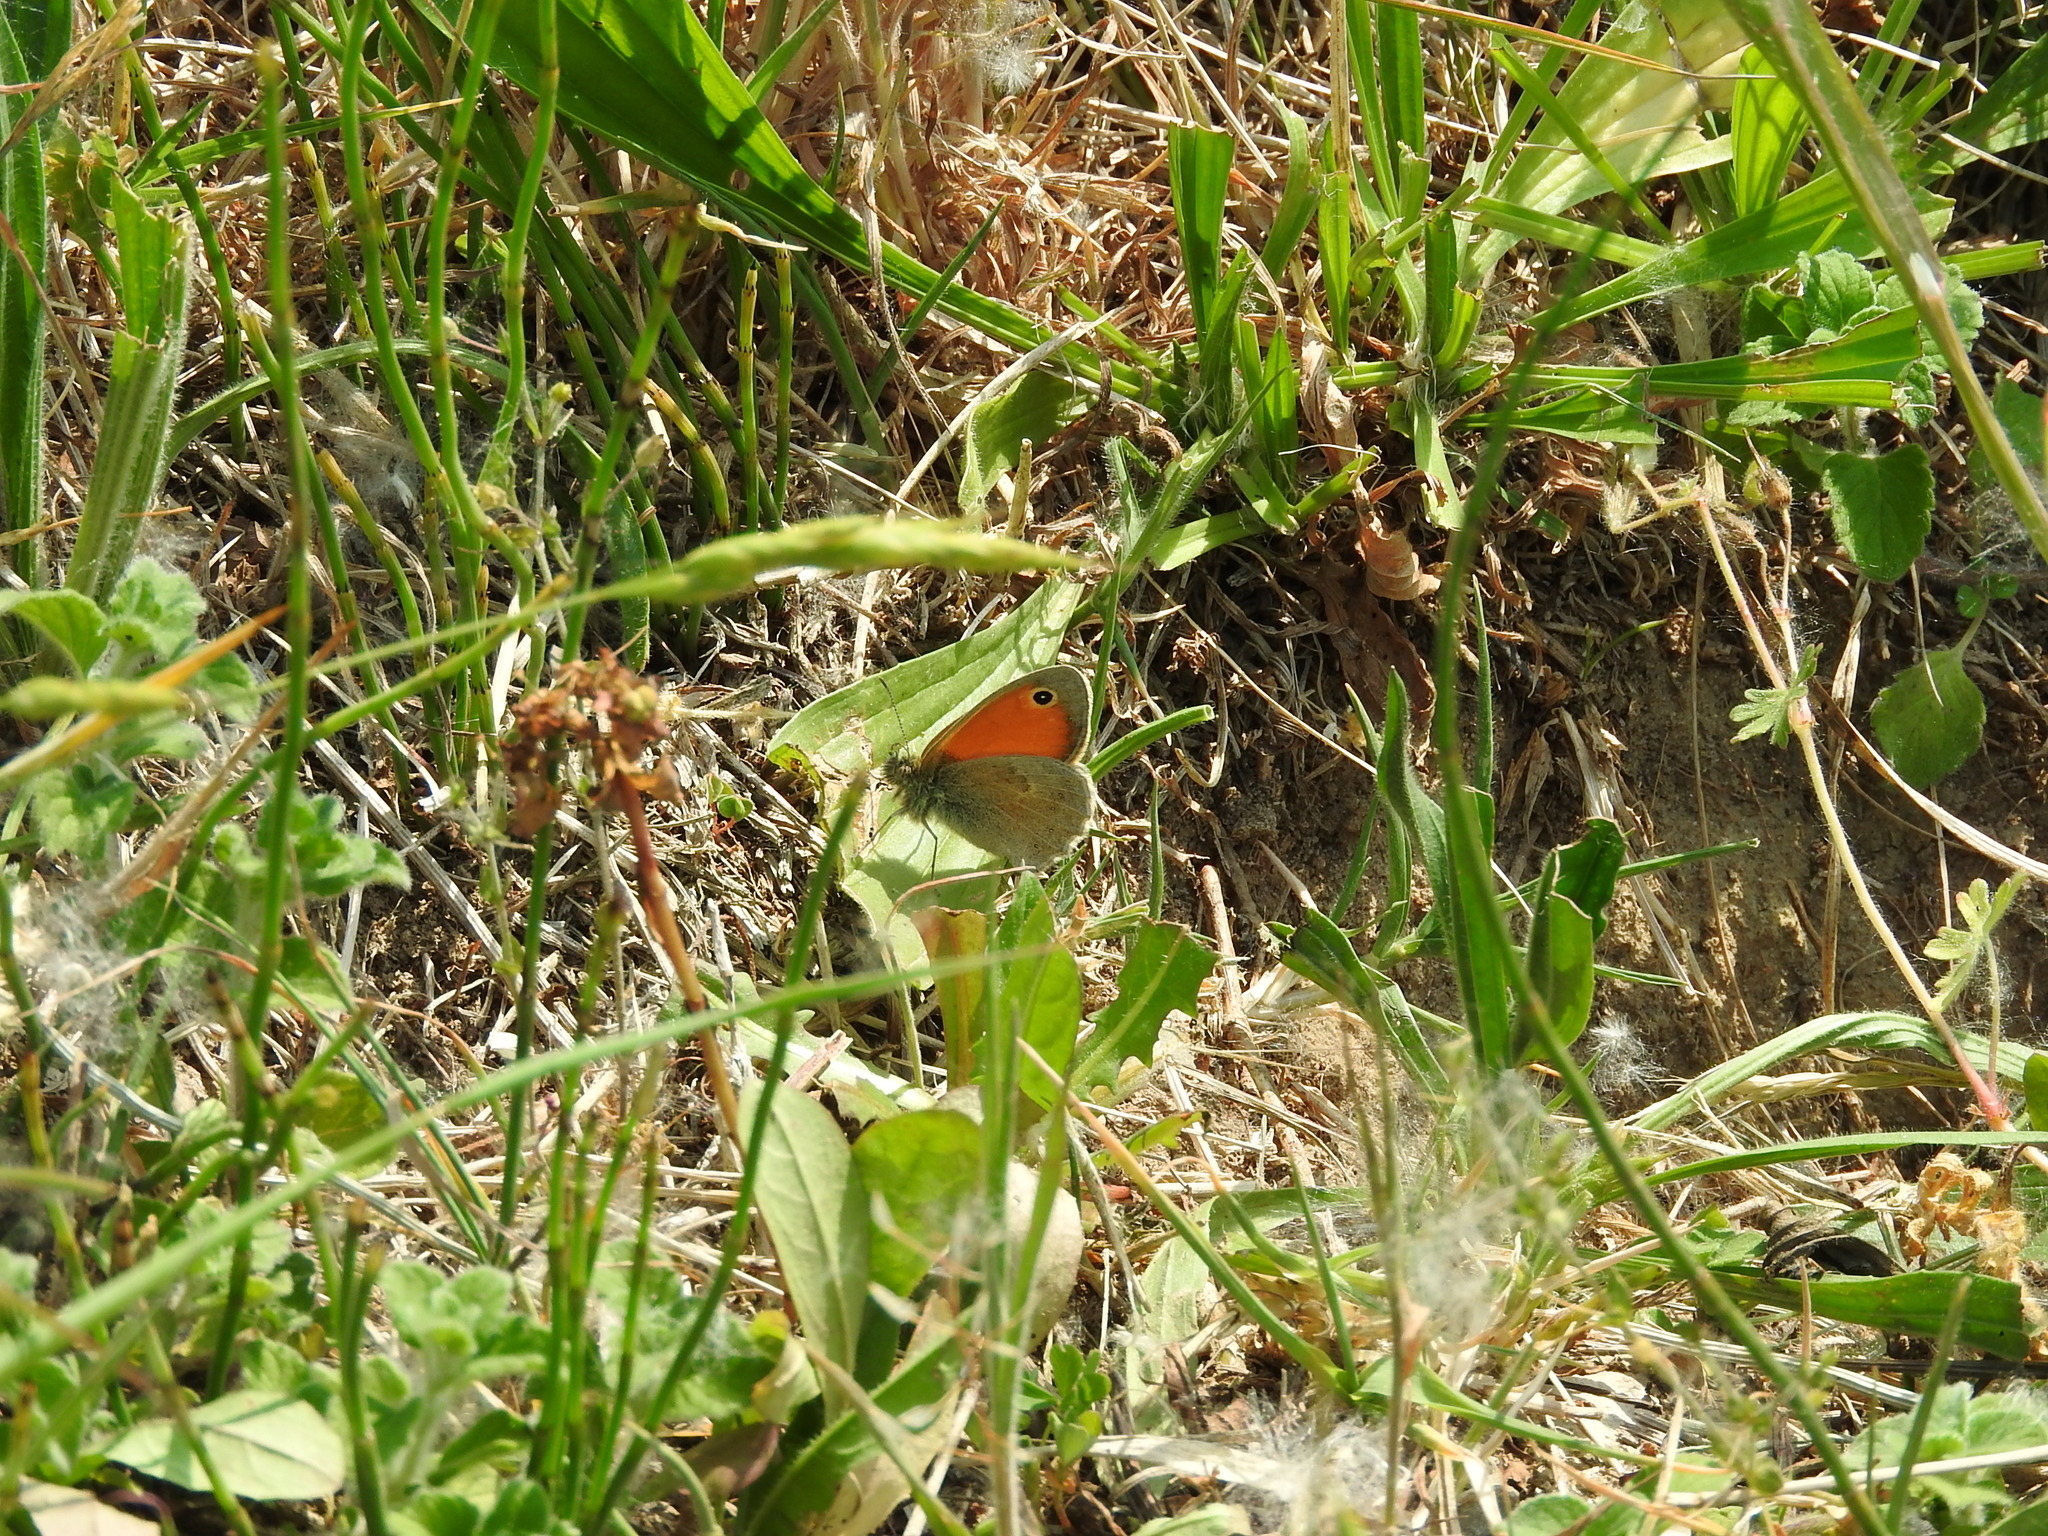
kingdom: Animalia
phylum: Arthropoda
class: Insecta
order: Lepidoptera
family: Nymphalidae
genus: Coenonympha
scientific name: Coenonympha pamphilus
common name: Small heath
